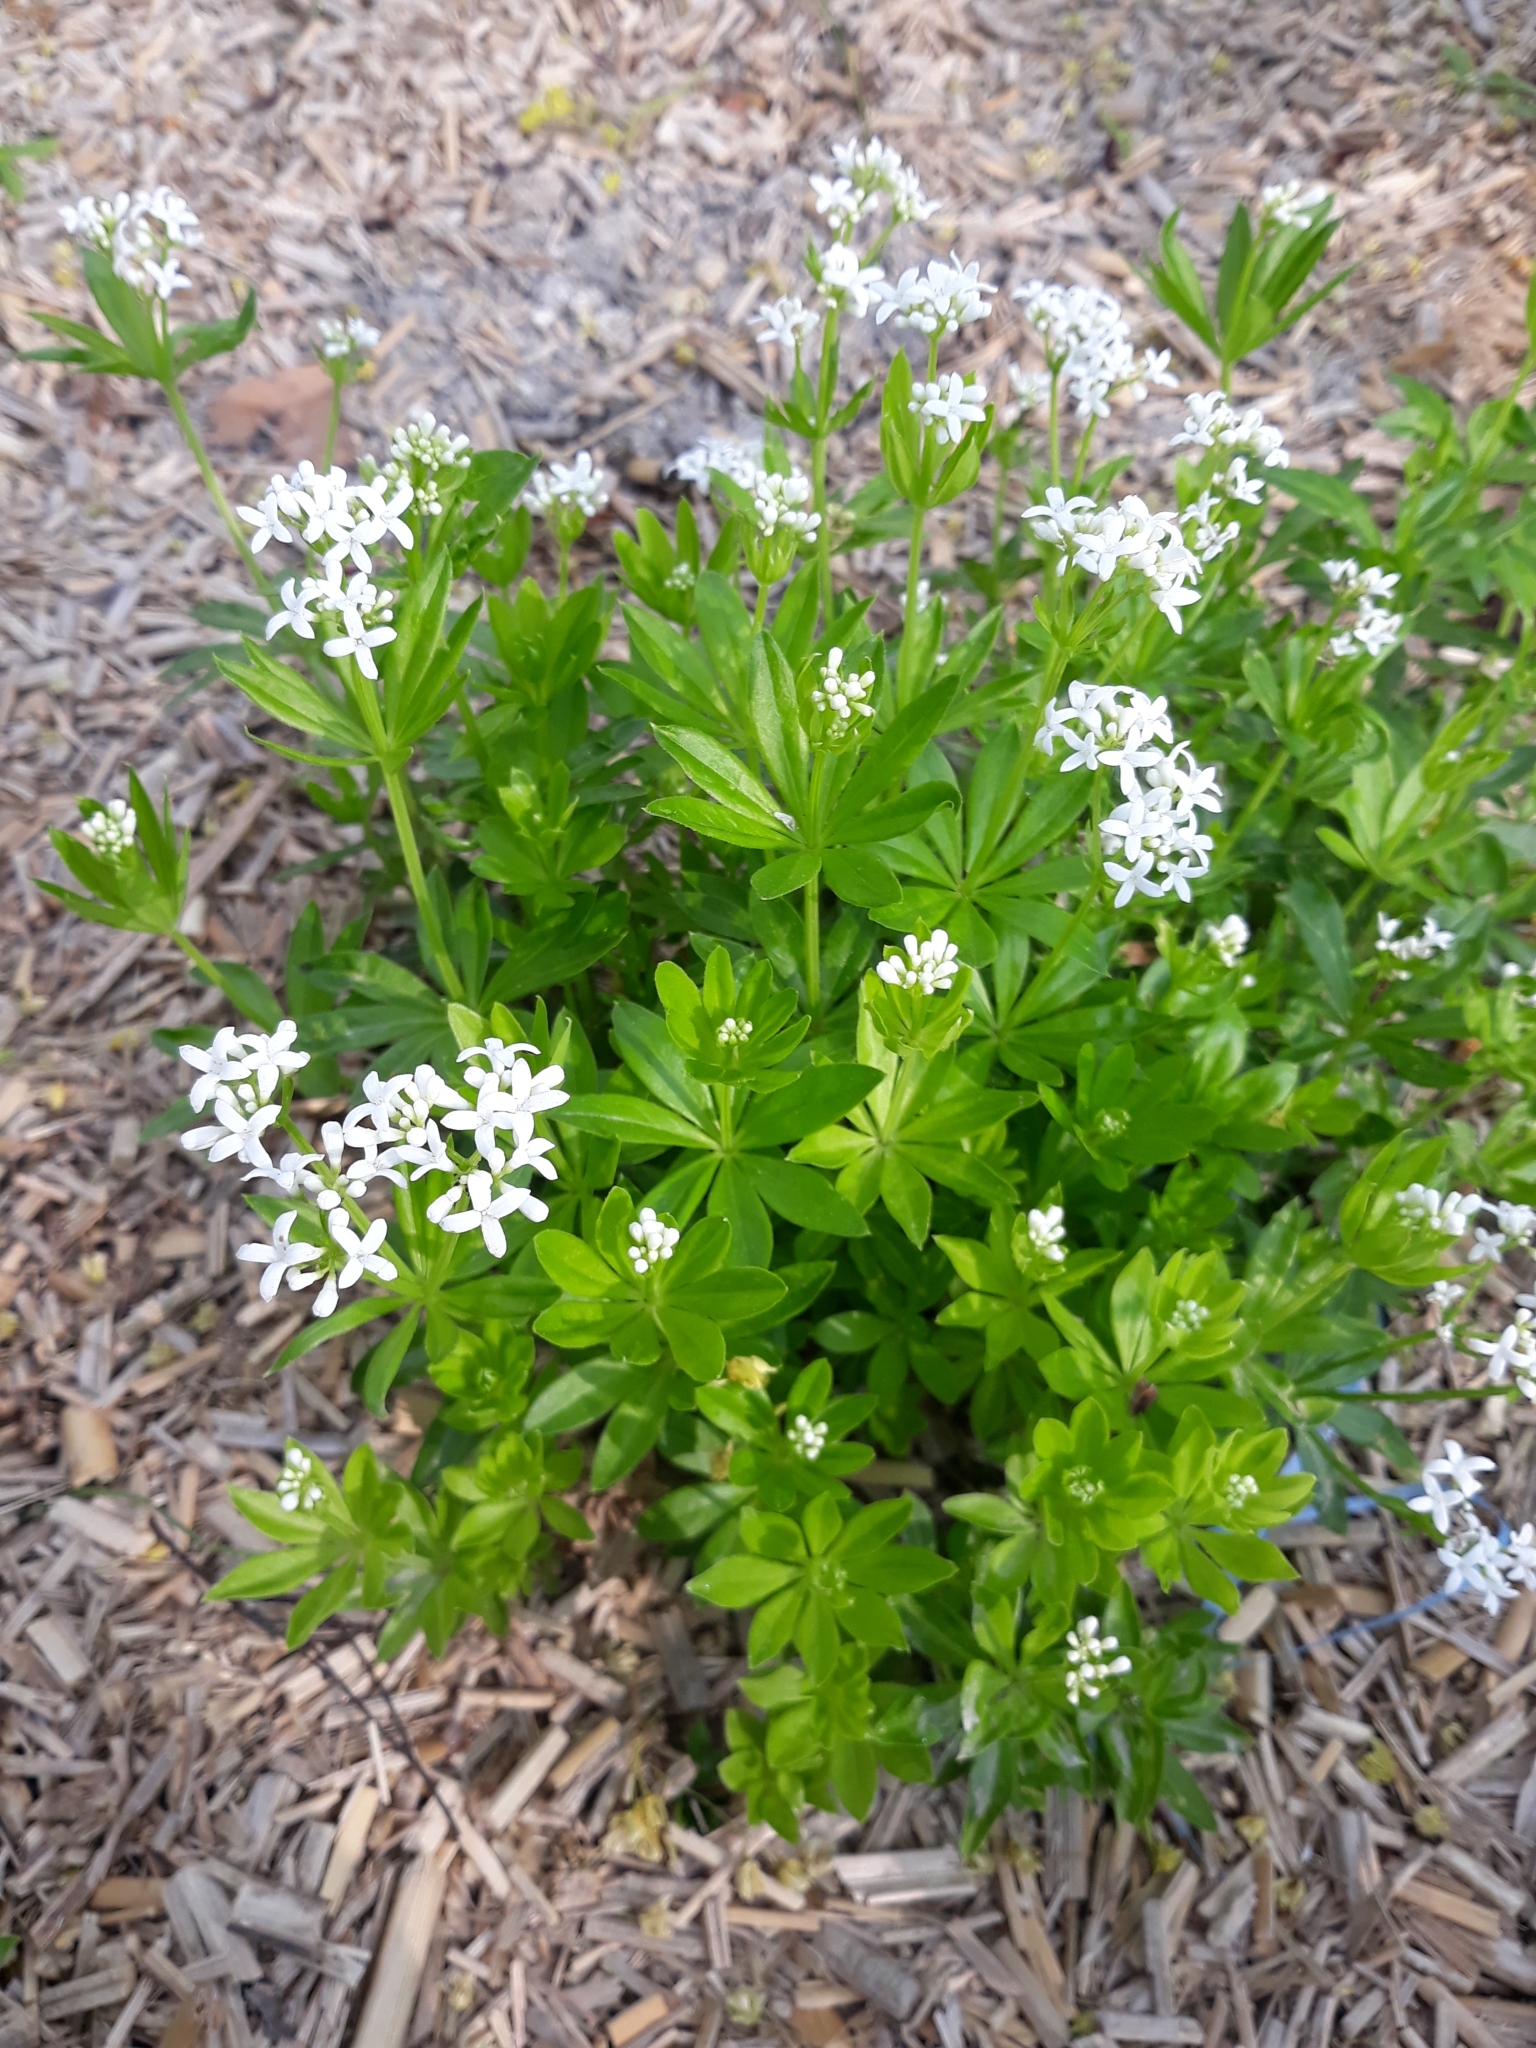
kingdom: Plantae
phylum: Tracheophyta
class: Magnoliopsida
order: Gentianales
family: Rubiaceae
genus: Galium
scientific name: Galium odoratum
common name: Sweet woodruff
